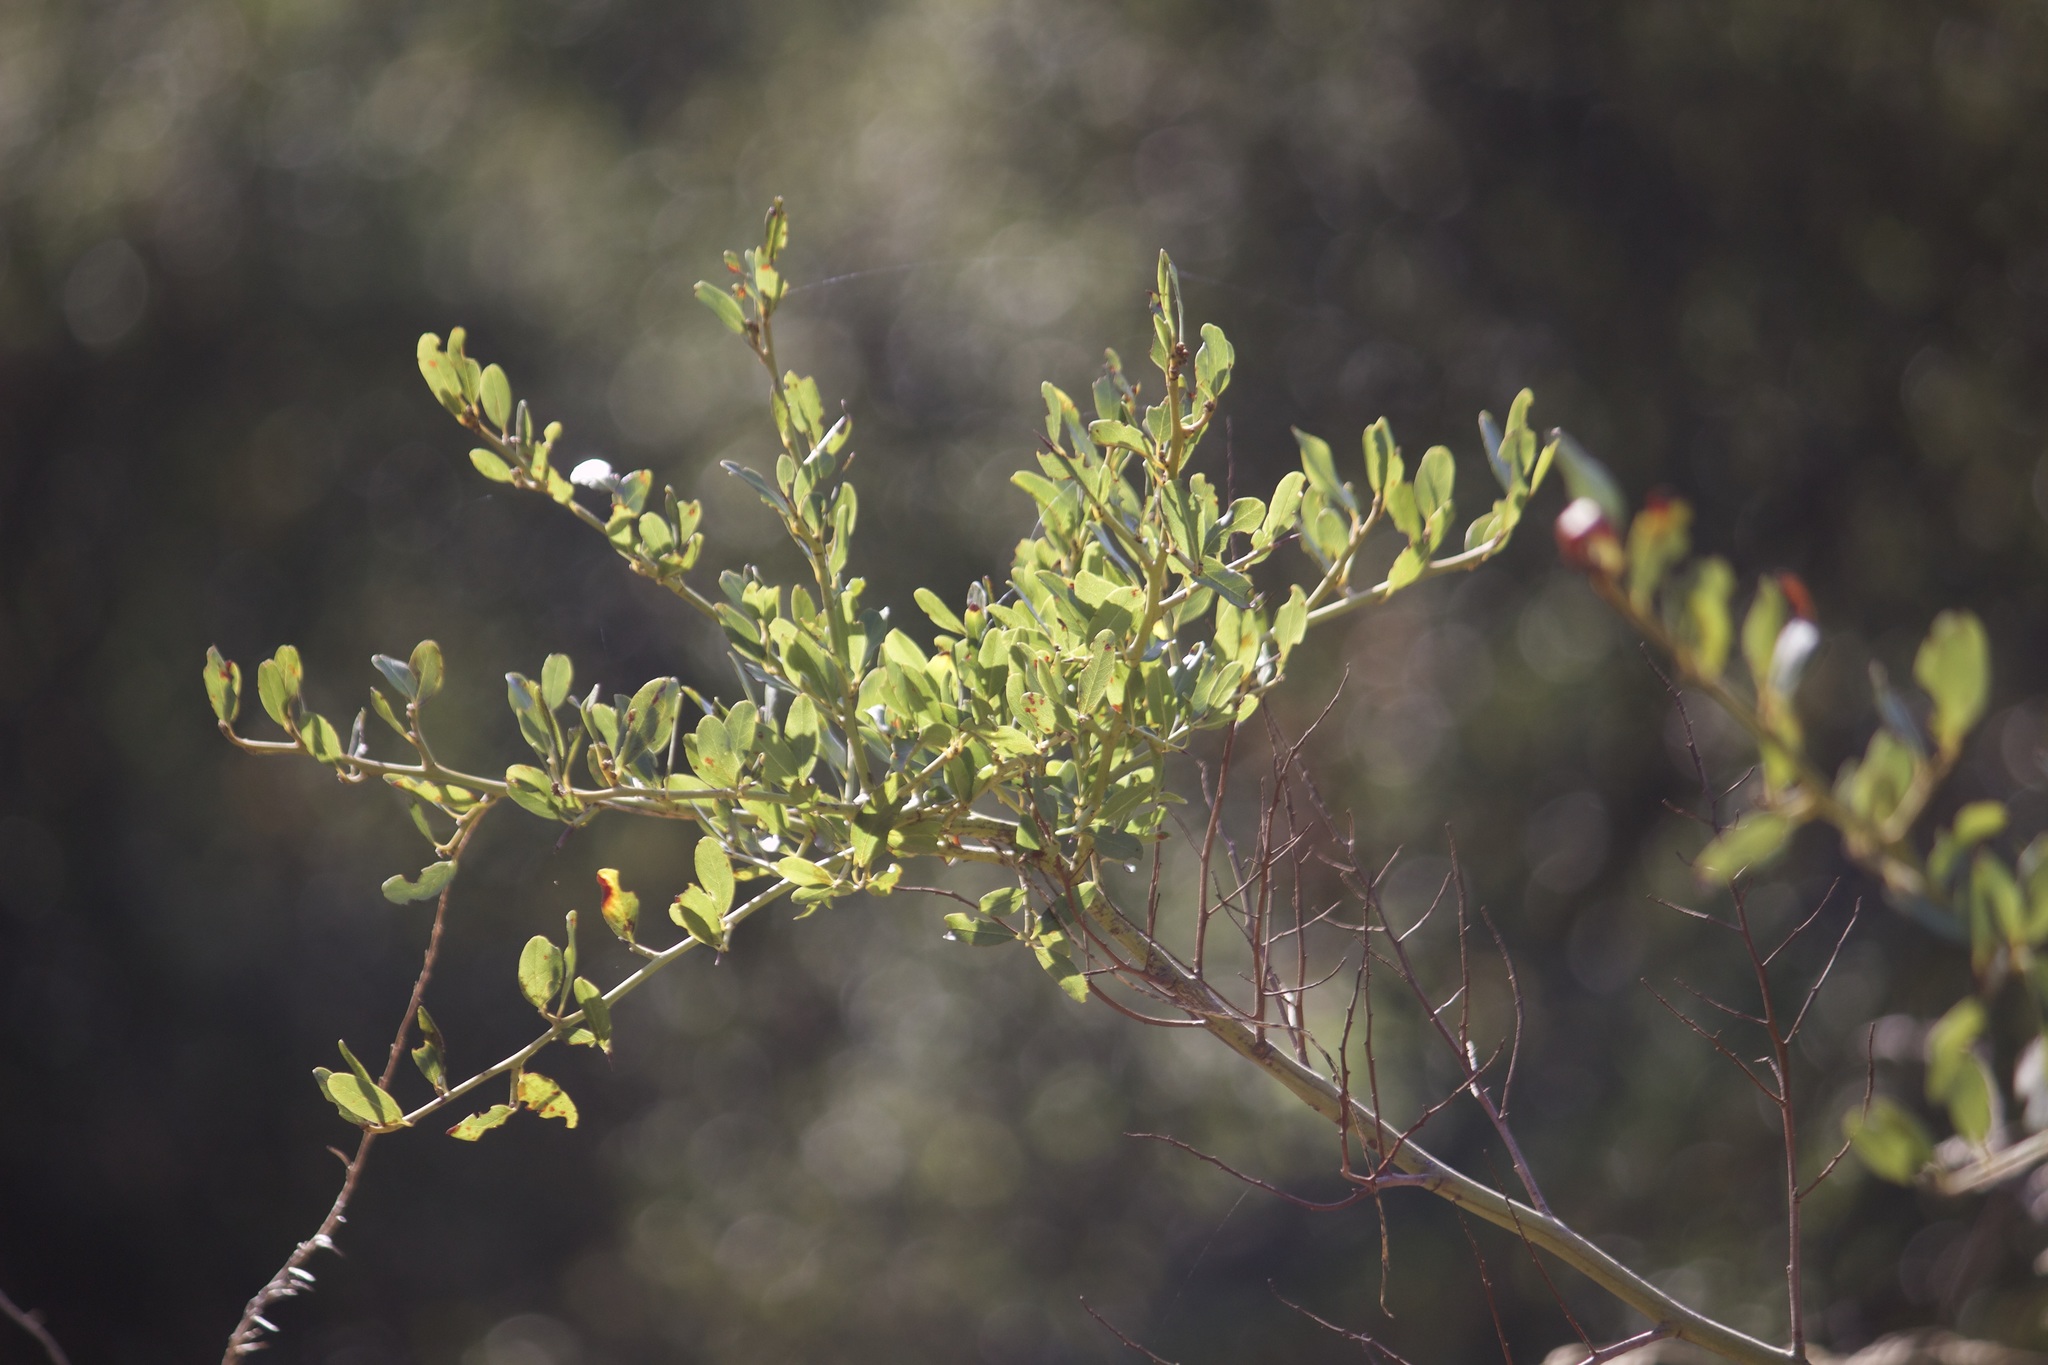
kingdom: Plantae
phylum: Tracheophyta
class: Magnoliopsida
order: Rosales
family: Rhamnaceae
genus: Ceanothus
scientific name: Ceanothus spinosus
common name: Greenbark whitethorn
